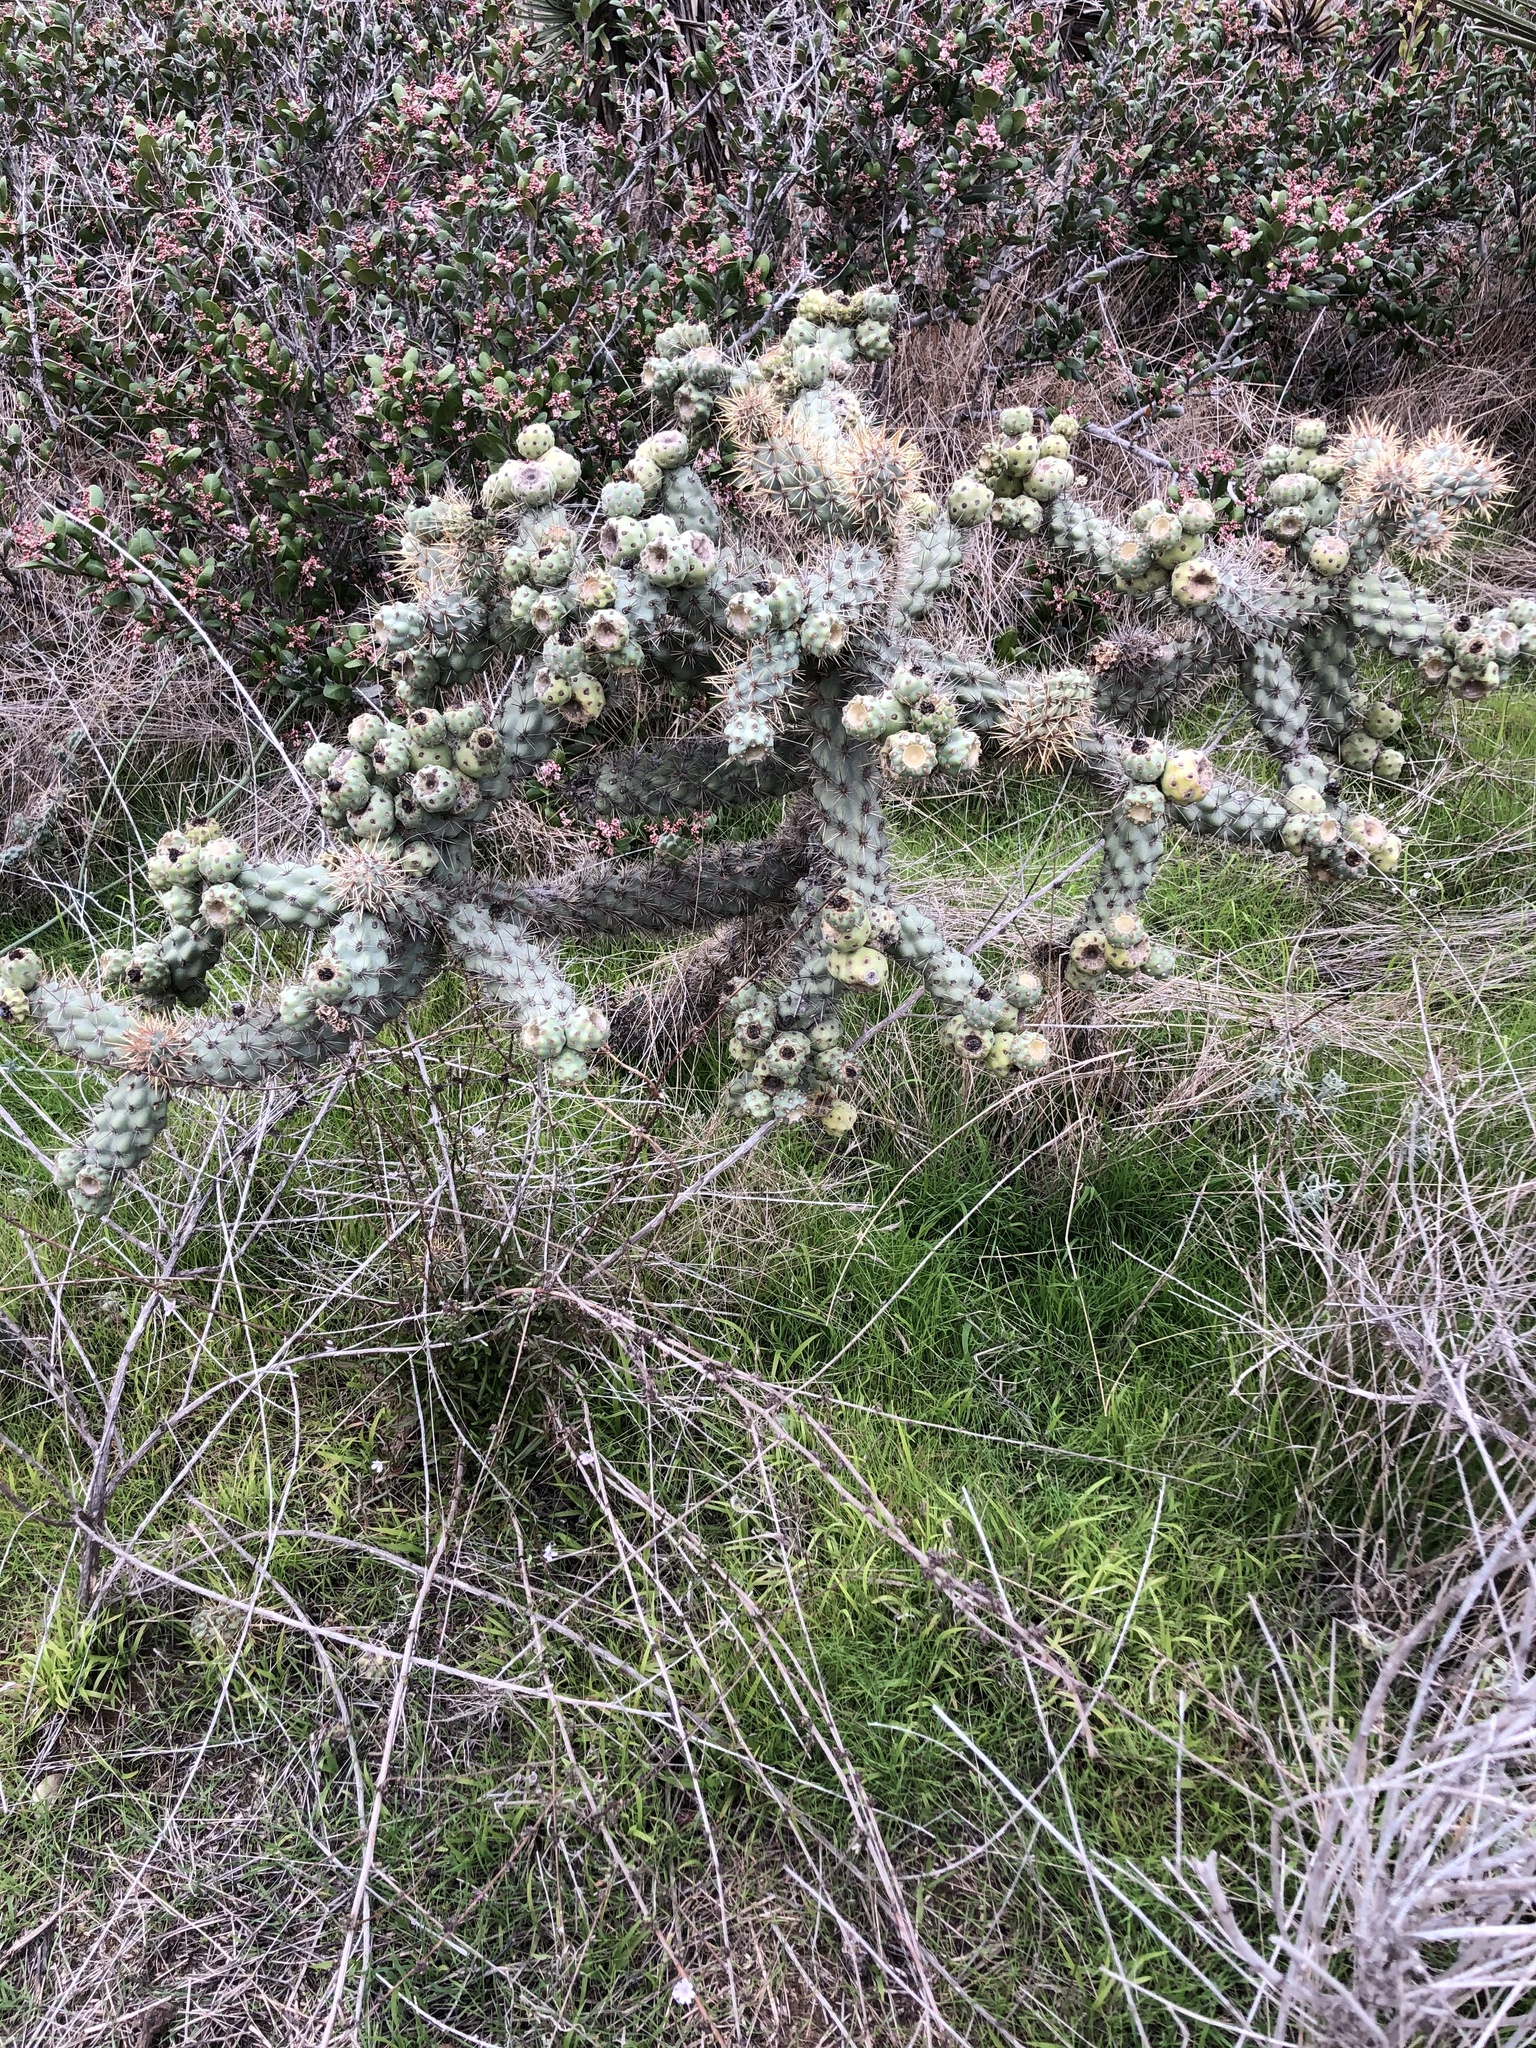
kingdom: Plantae
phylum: Tracheophyta
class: Magnoliopsida
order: Caryophyllales
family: Cactaceae
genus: Cylindropuntia
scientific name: Cylindropuntia prolifera
